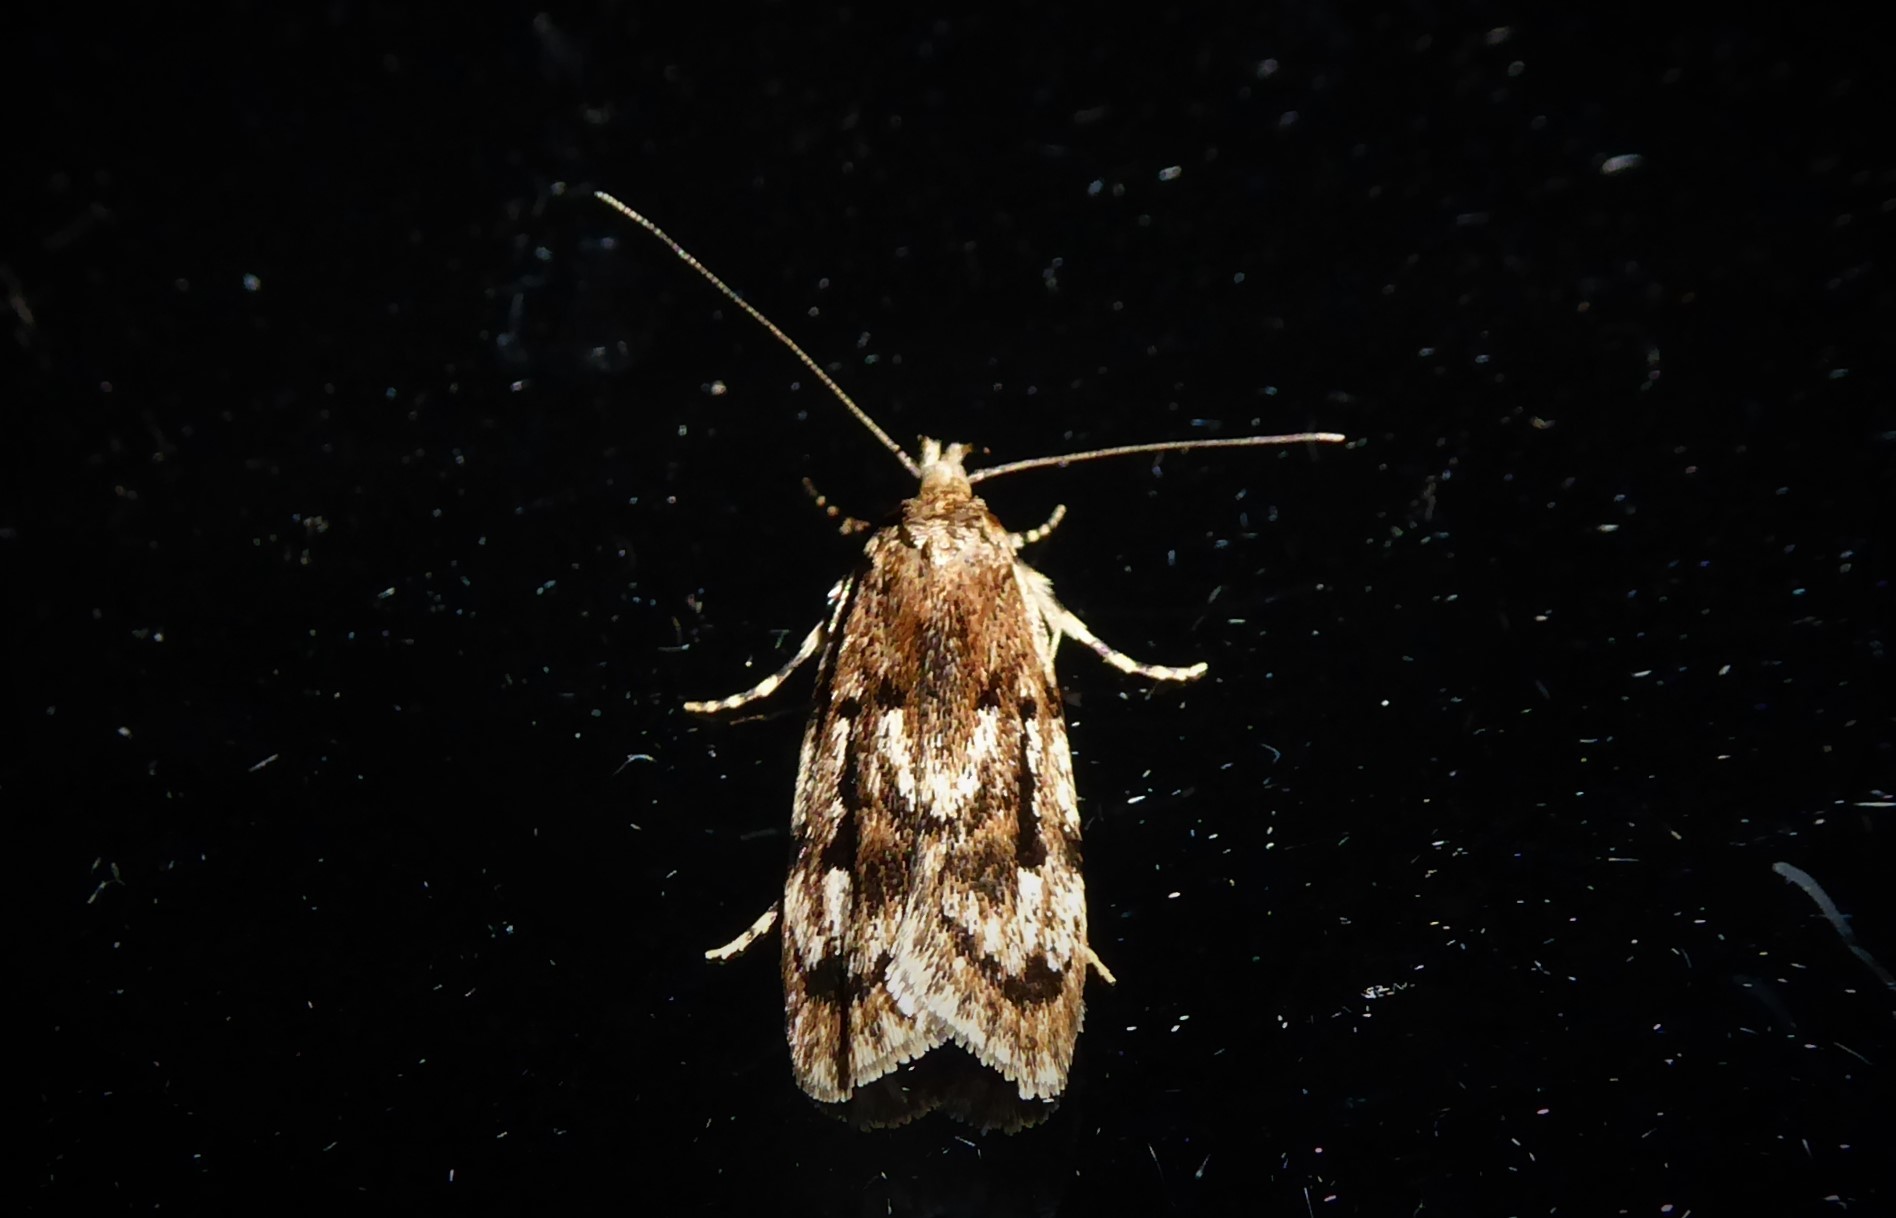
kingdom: Animalia
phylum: Arthropoda
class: Insecta
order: Lepidoptera
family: Oecophoridae
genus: Barea
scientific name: Barea exarcha
